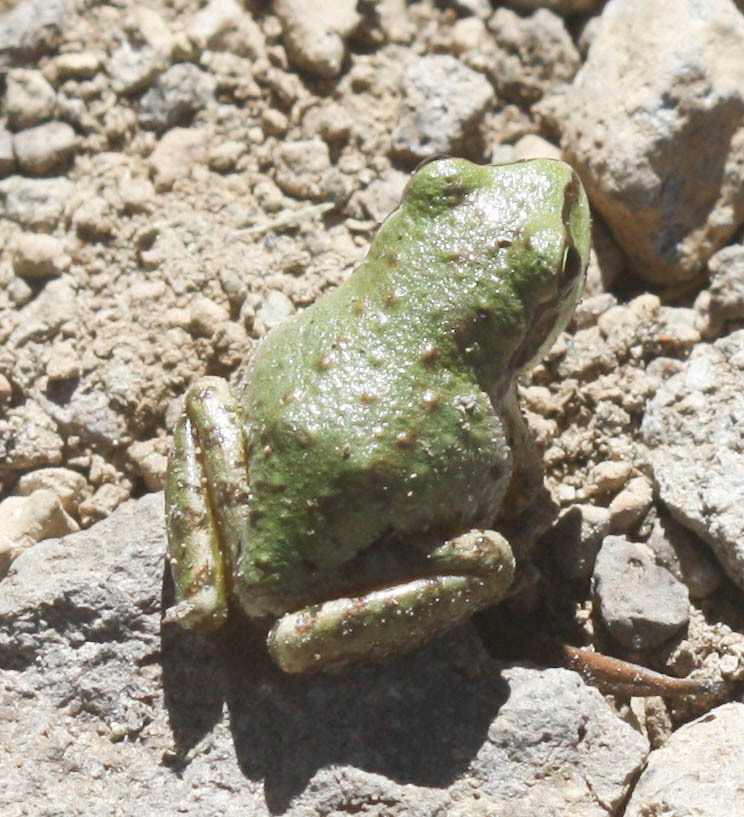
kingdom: Animalia
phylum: Chordata
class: Amphibia
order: Anura
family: Hylidae
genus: Pseudacris
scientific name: Pseudacris regilla
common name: Pacific chorus frog
